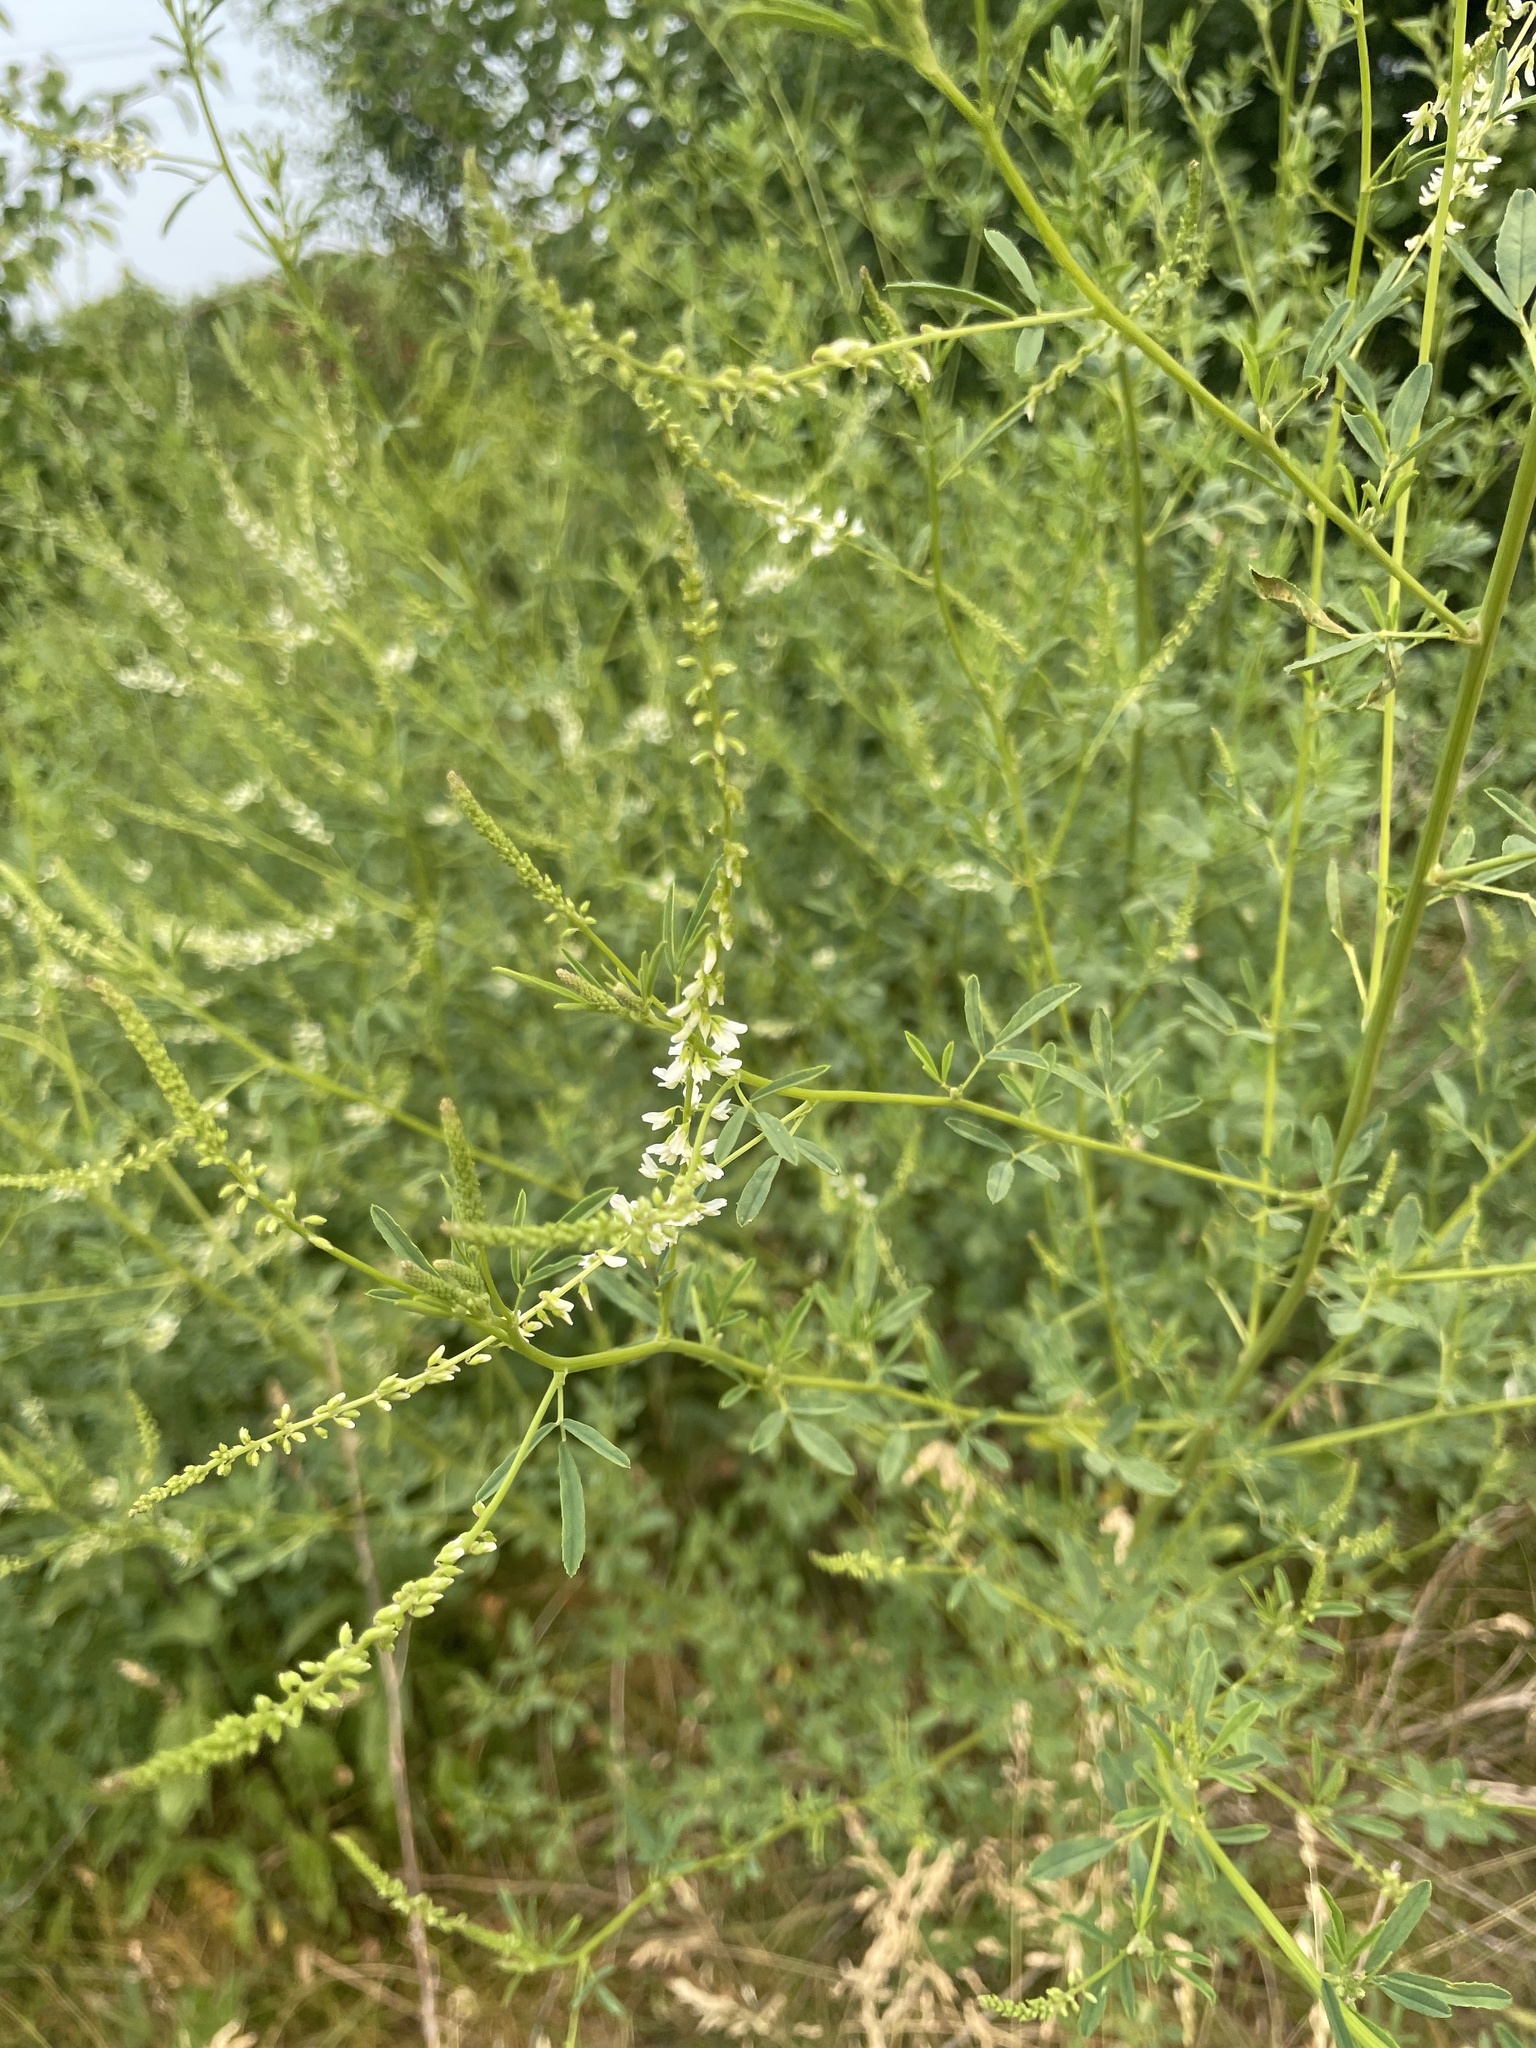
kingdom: Plantae
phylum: Tracheophyta
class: Magnoliopsida
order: Fabales
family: Fabaceae
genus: Melilotus
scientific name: Melilotus albus
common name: White melilot
